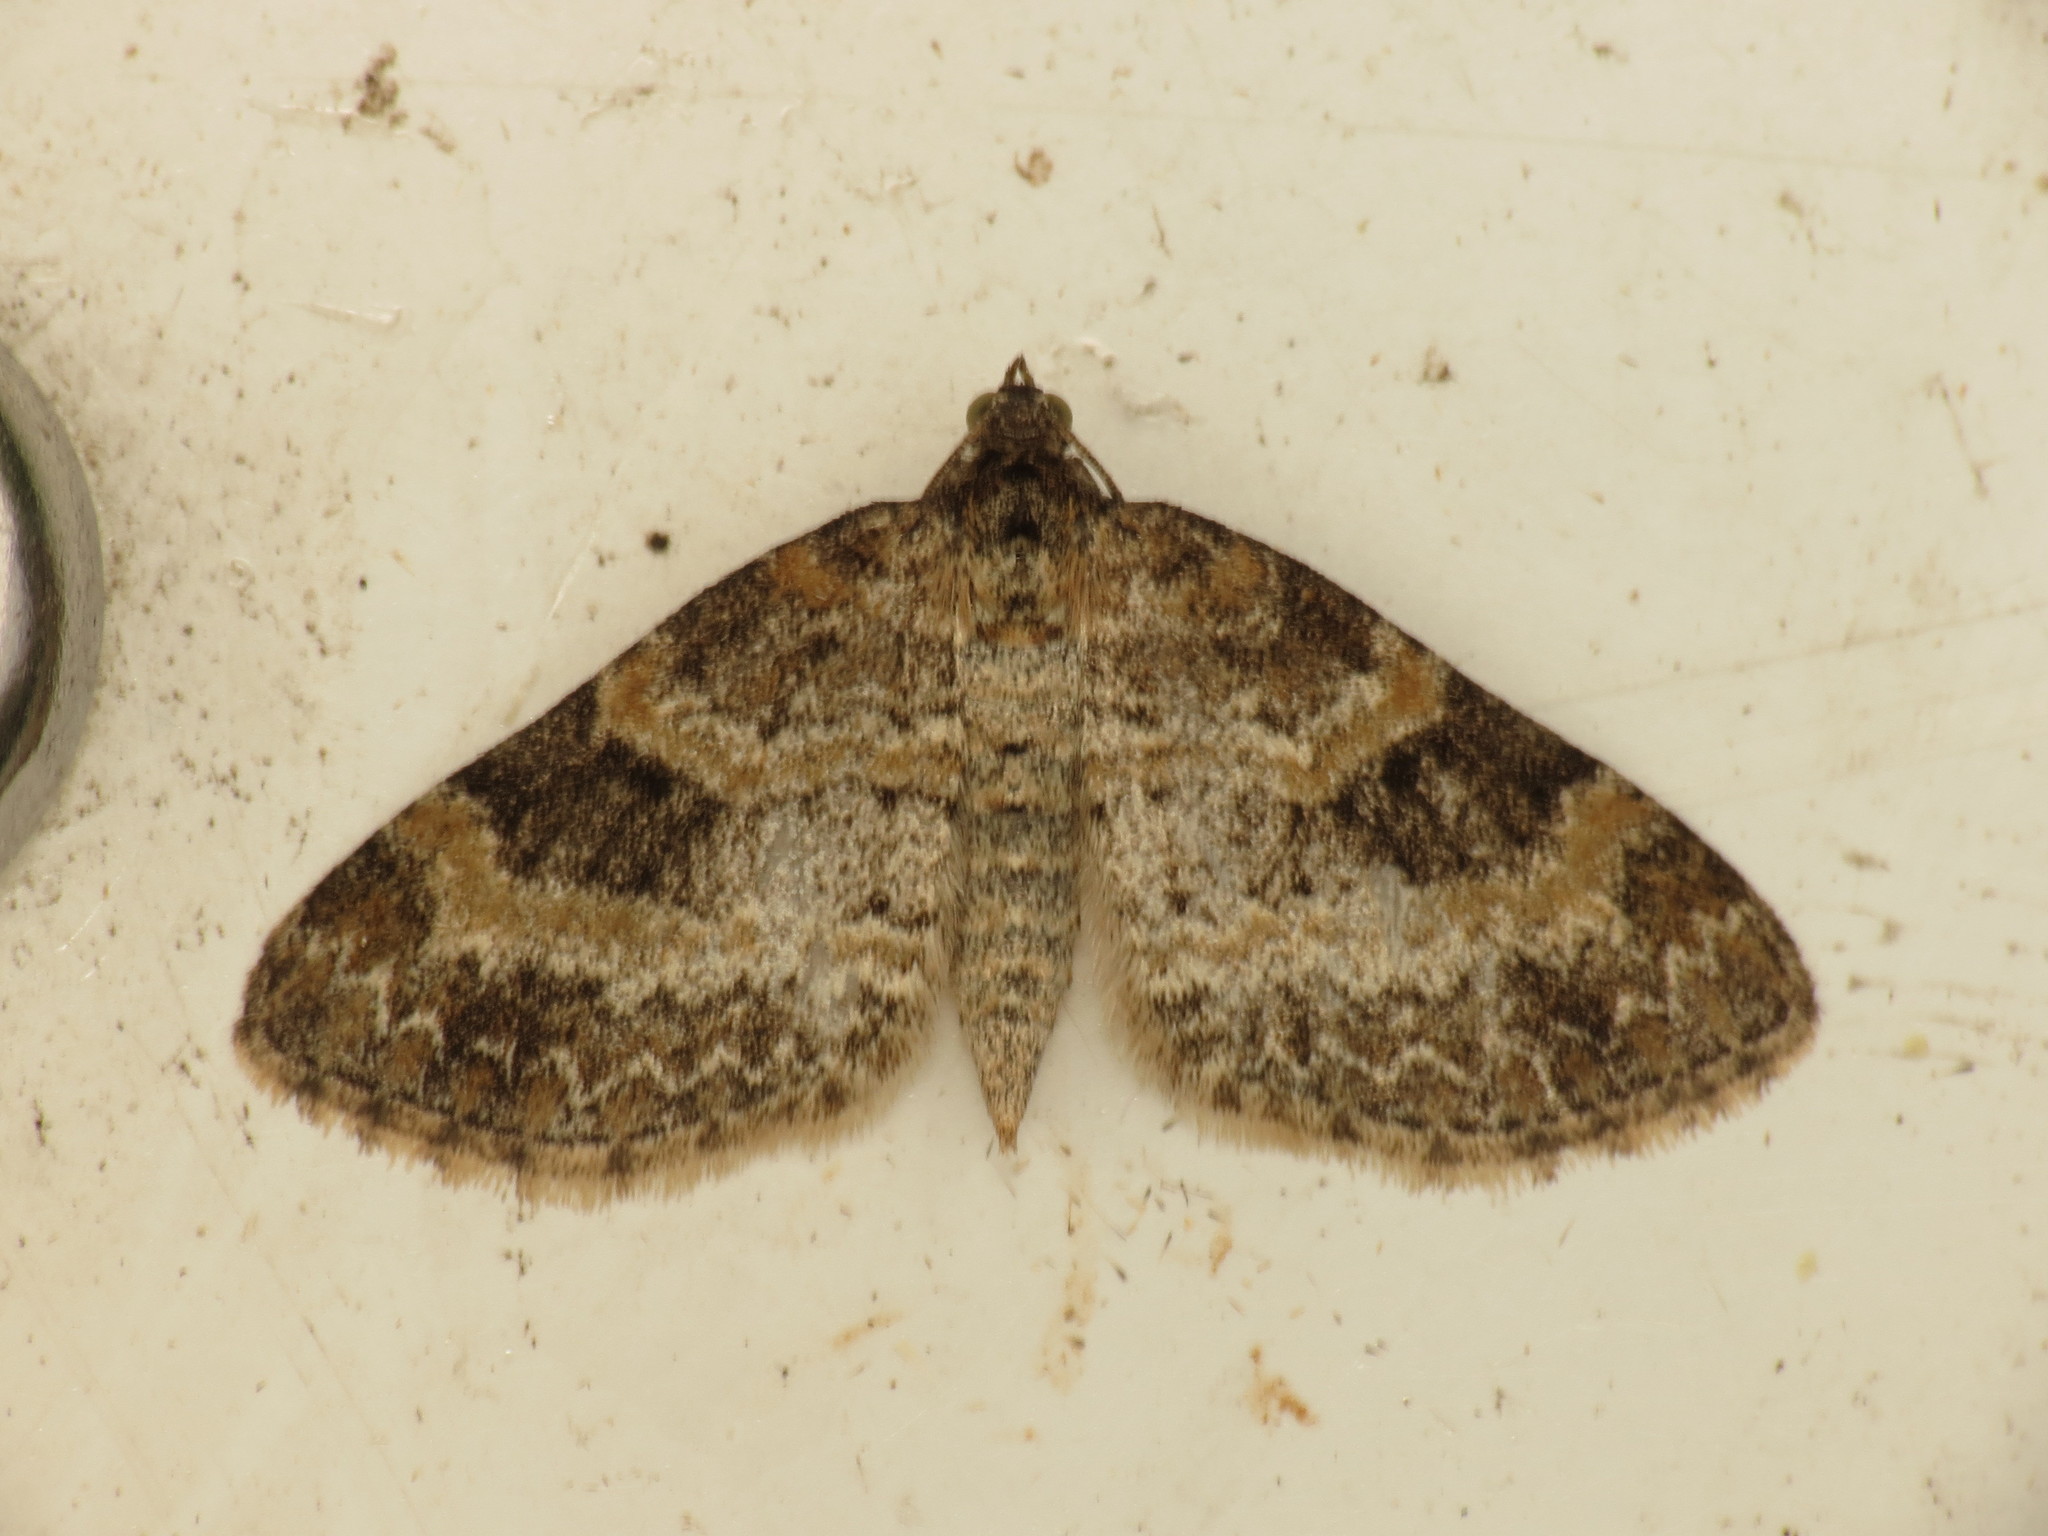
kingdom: Animalia
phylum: Arthropoda
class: Insecta
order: Lepidoptera
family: Geometridae
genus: Pterapherapteryx
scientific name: Pterapherapteryx sexalata
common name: Small seraphim
